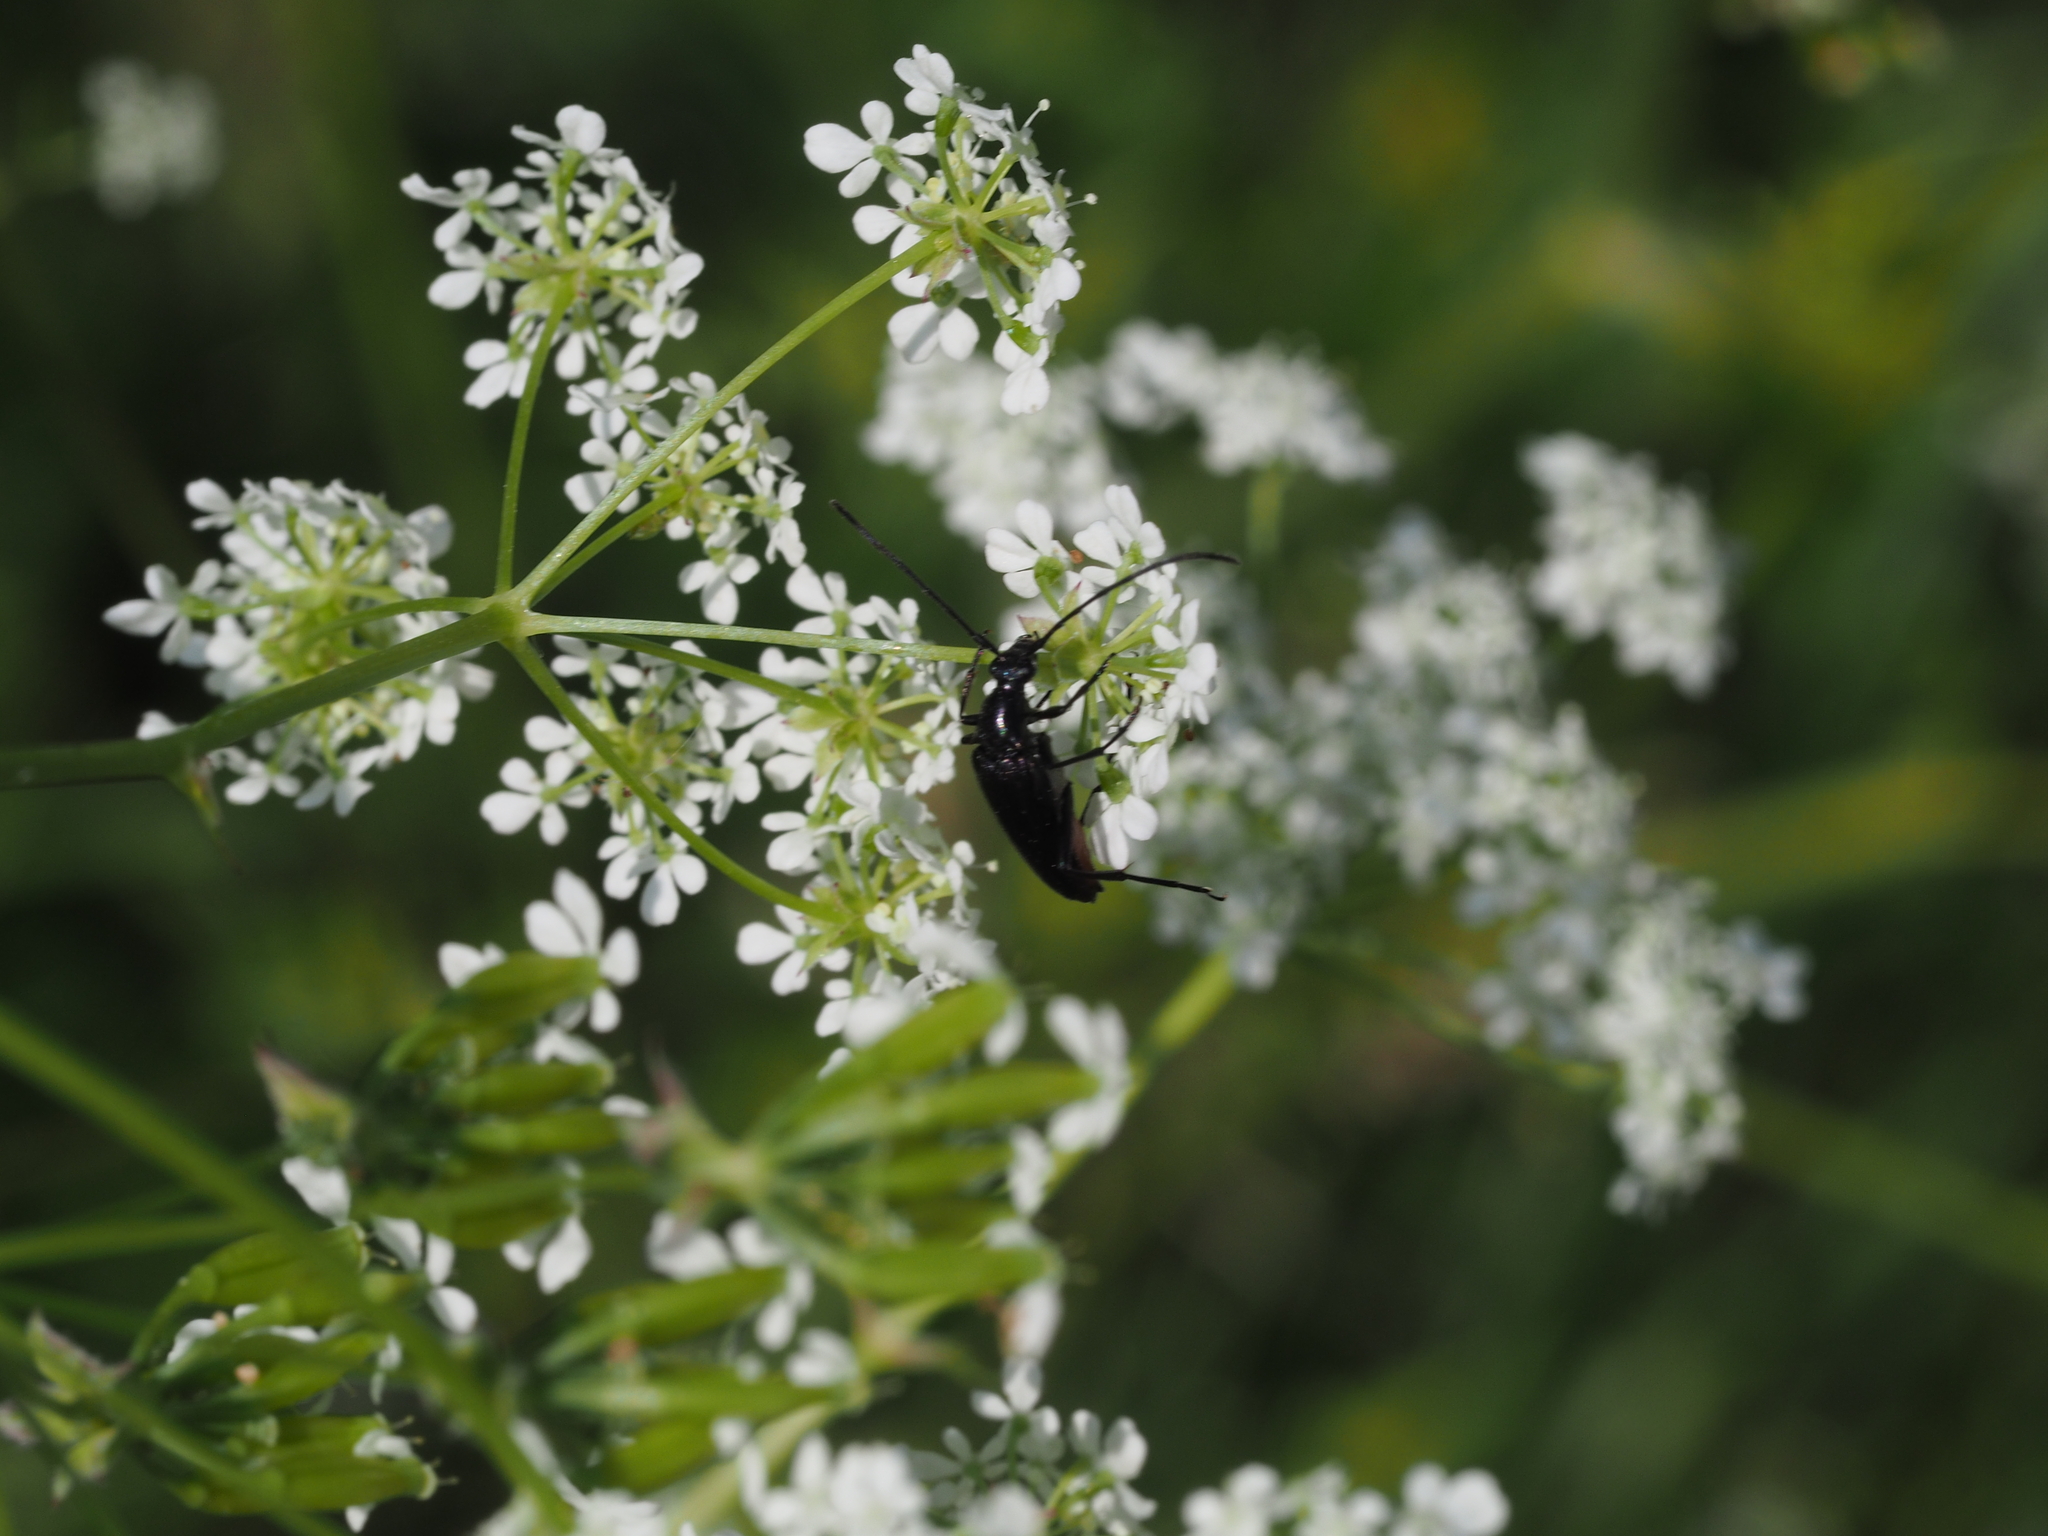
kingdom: Animalia
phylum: Arthropoda
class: Insecta
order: Coleoptera
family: Cerambycidae
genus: Stenurella
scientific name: Stenurella nigra
